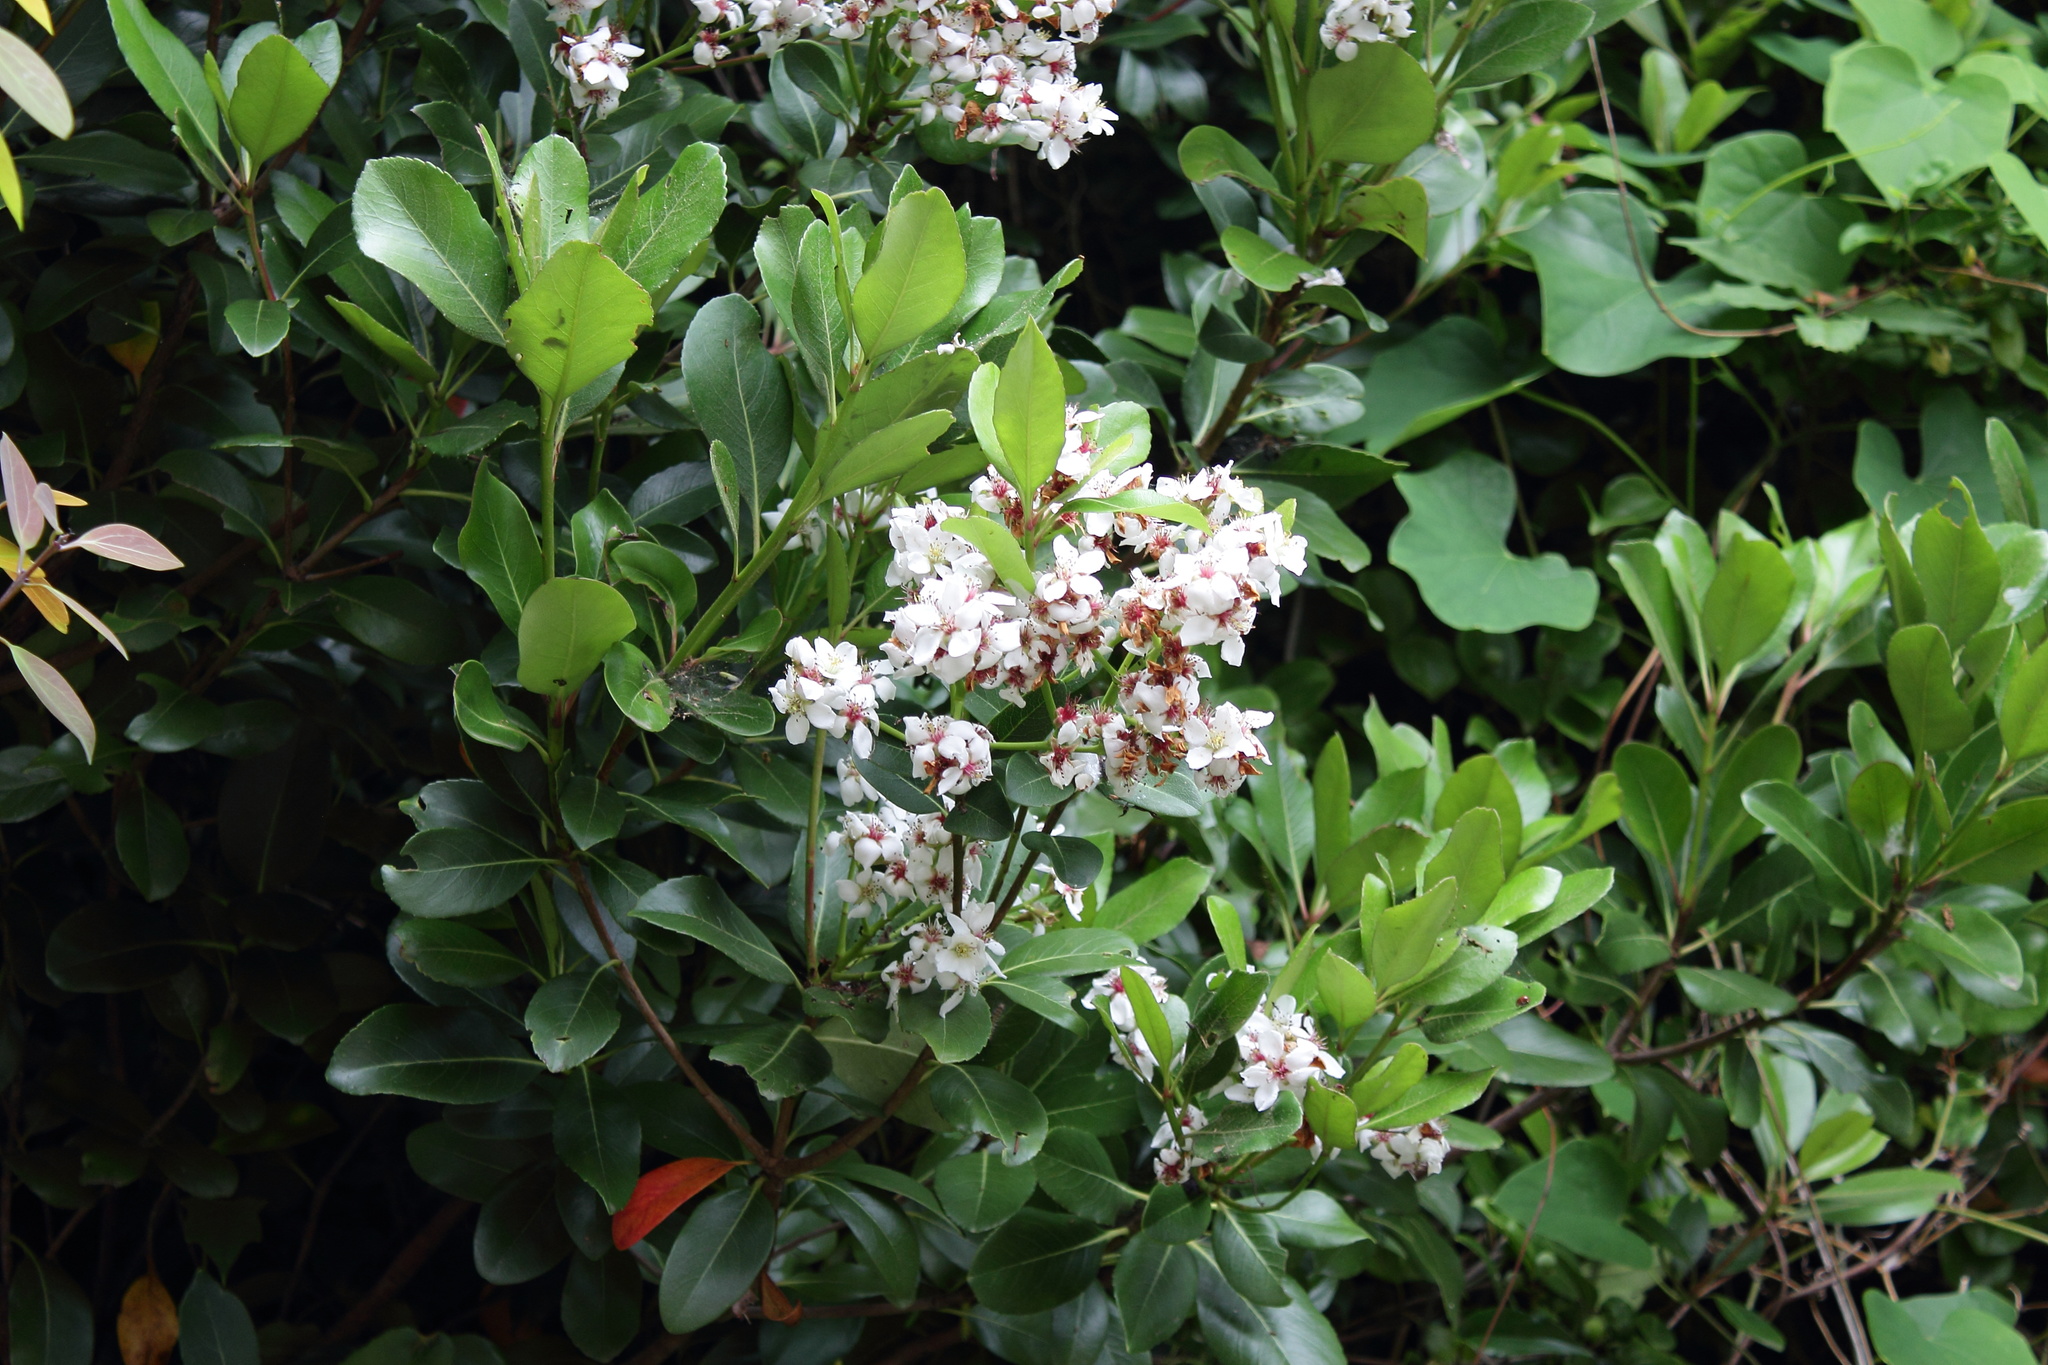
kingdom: Plantae
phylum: Tracheophyta
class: Magnoliopsida
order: Rosales
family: Rosaceae
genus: Rhaphiolepis
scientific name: Rhaphiolepis indica
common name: India-hawthorn
